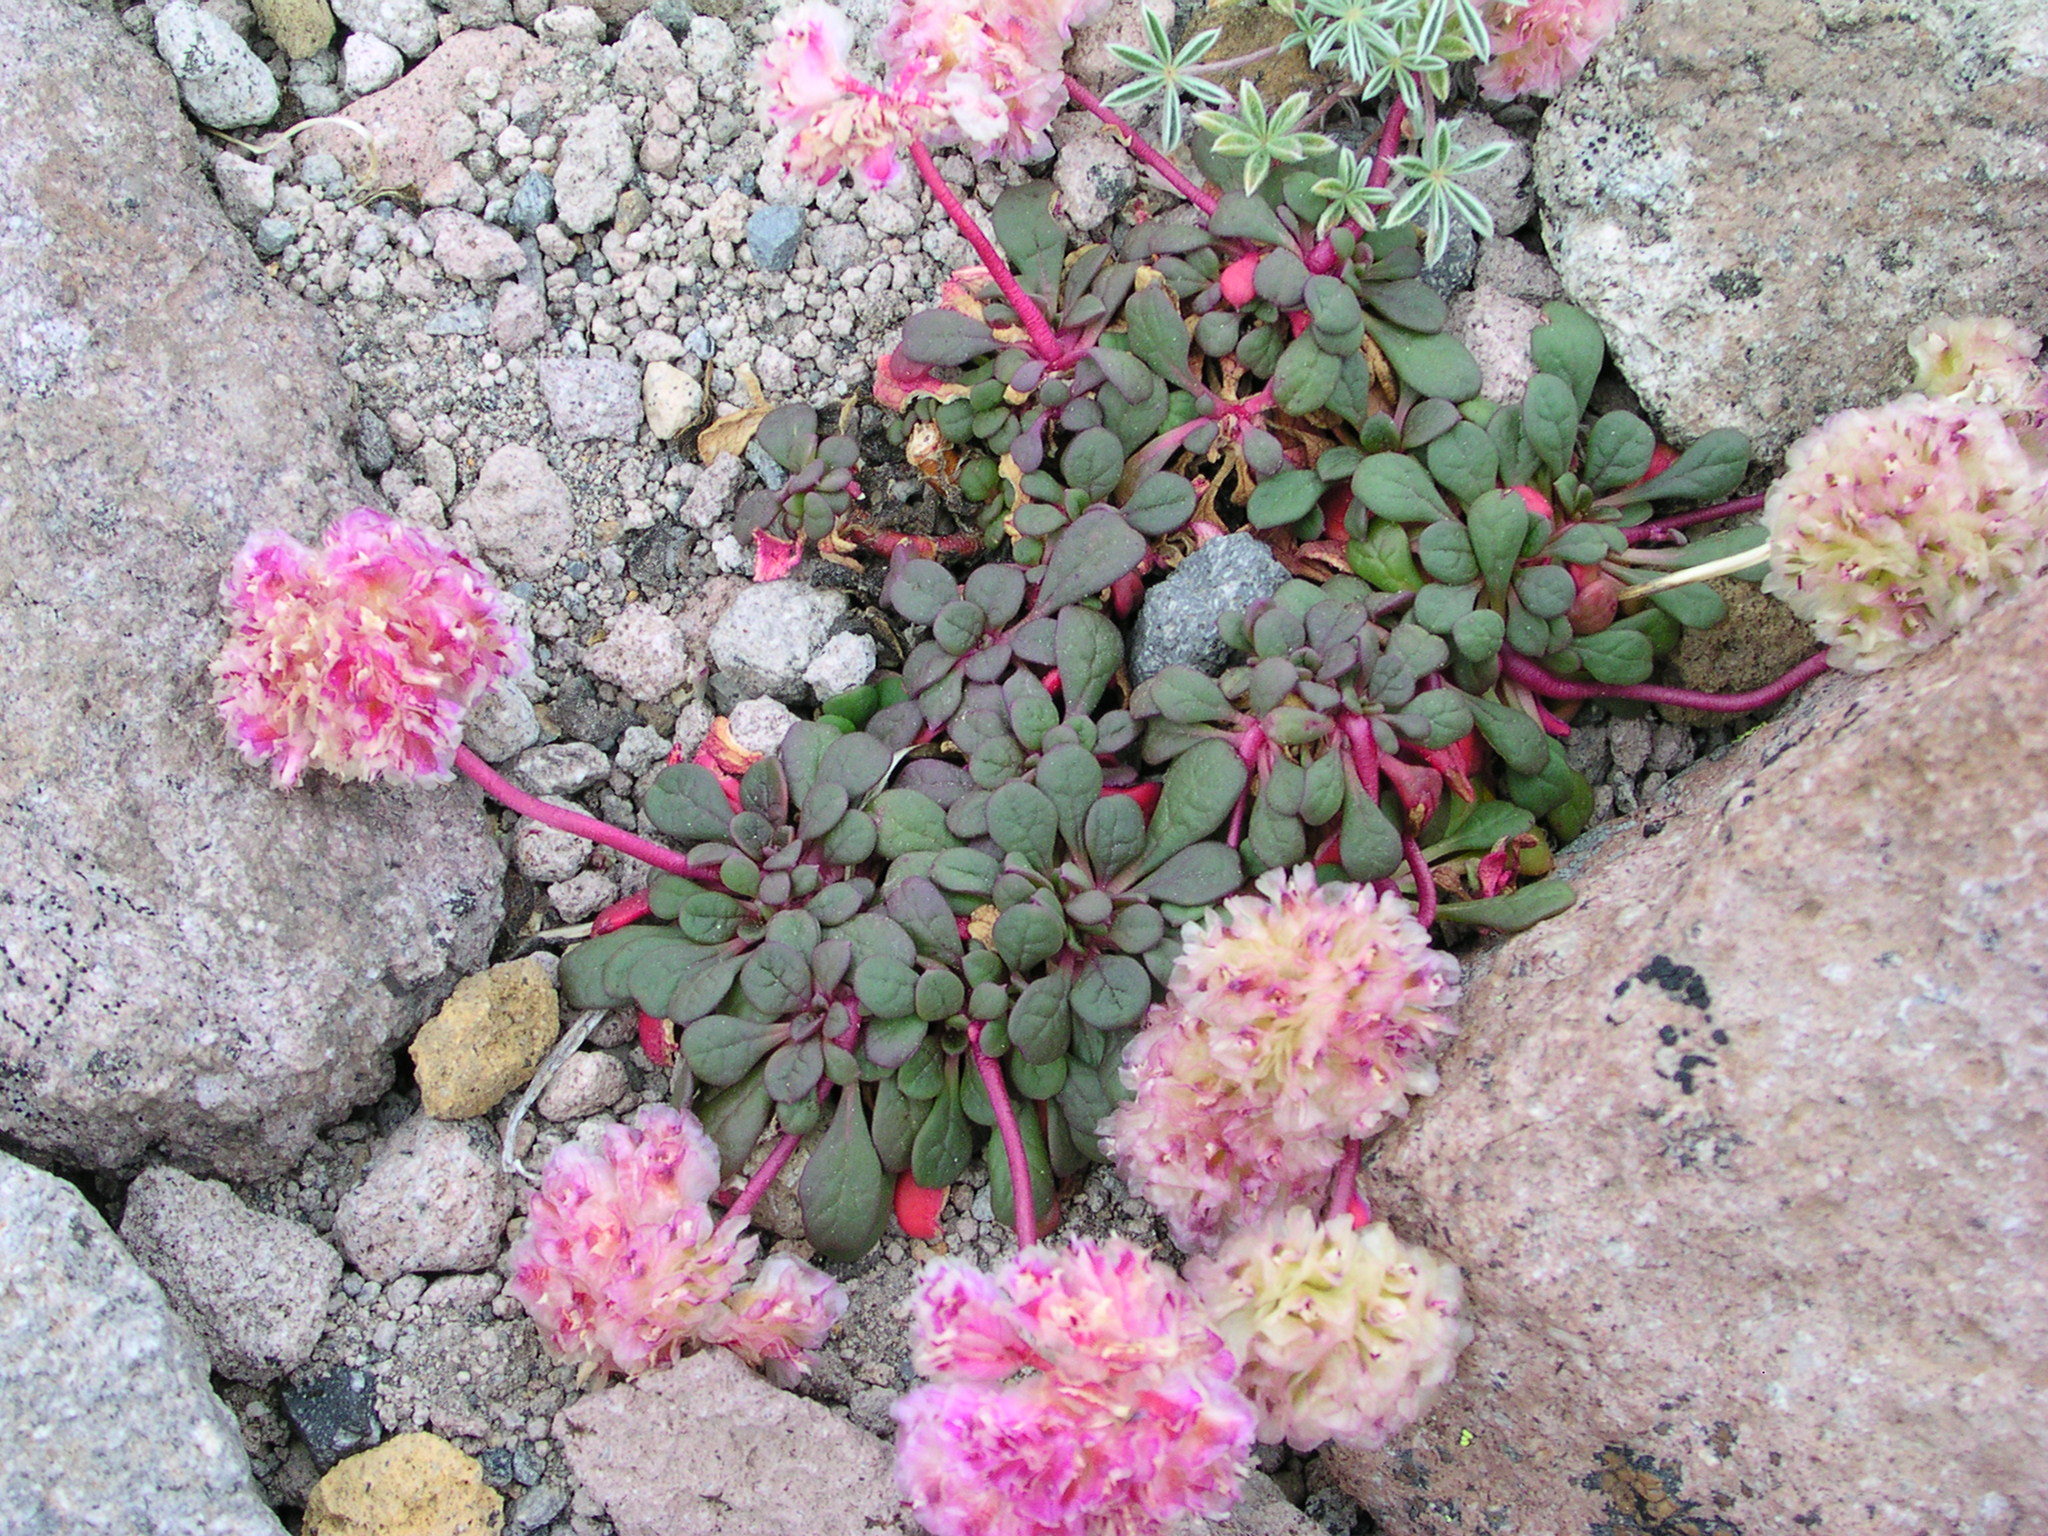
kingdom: Plantae
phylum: Tracheophyta
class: Magnoliopsida
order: Caryophyllales
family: Montiaceae
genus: Calyptridium
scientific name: Calyptridium umbellatum
